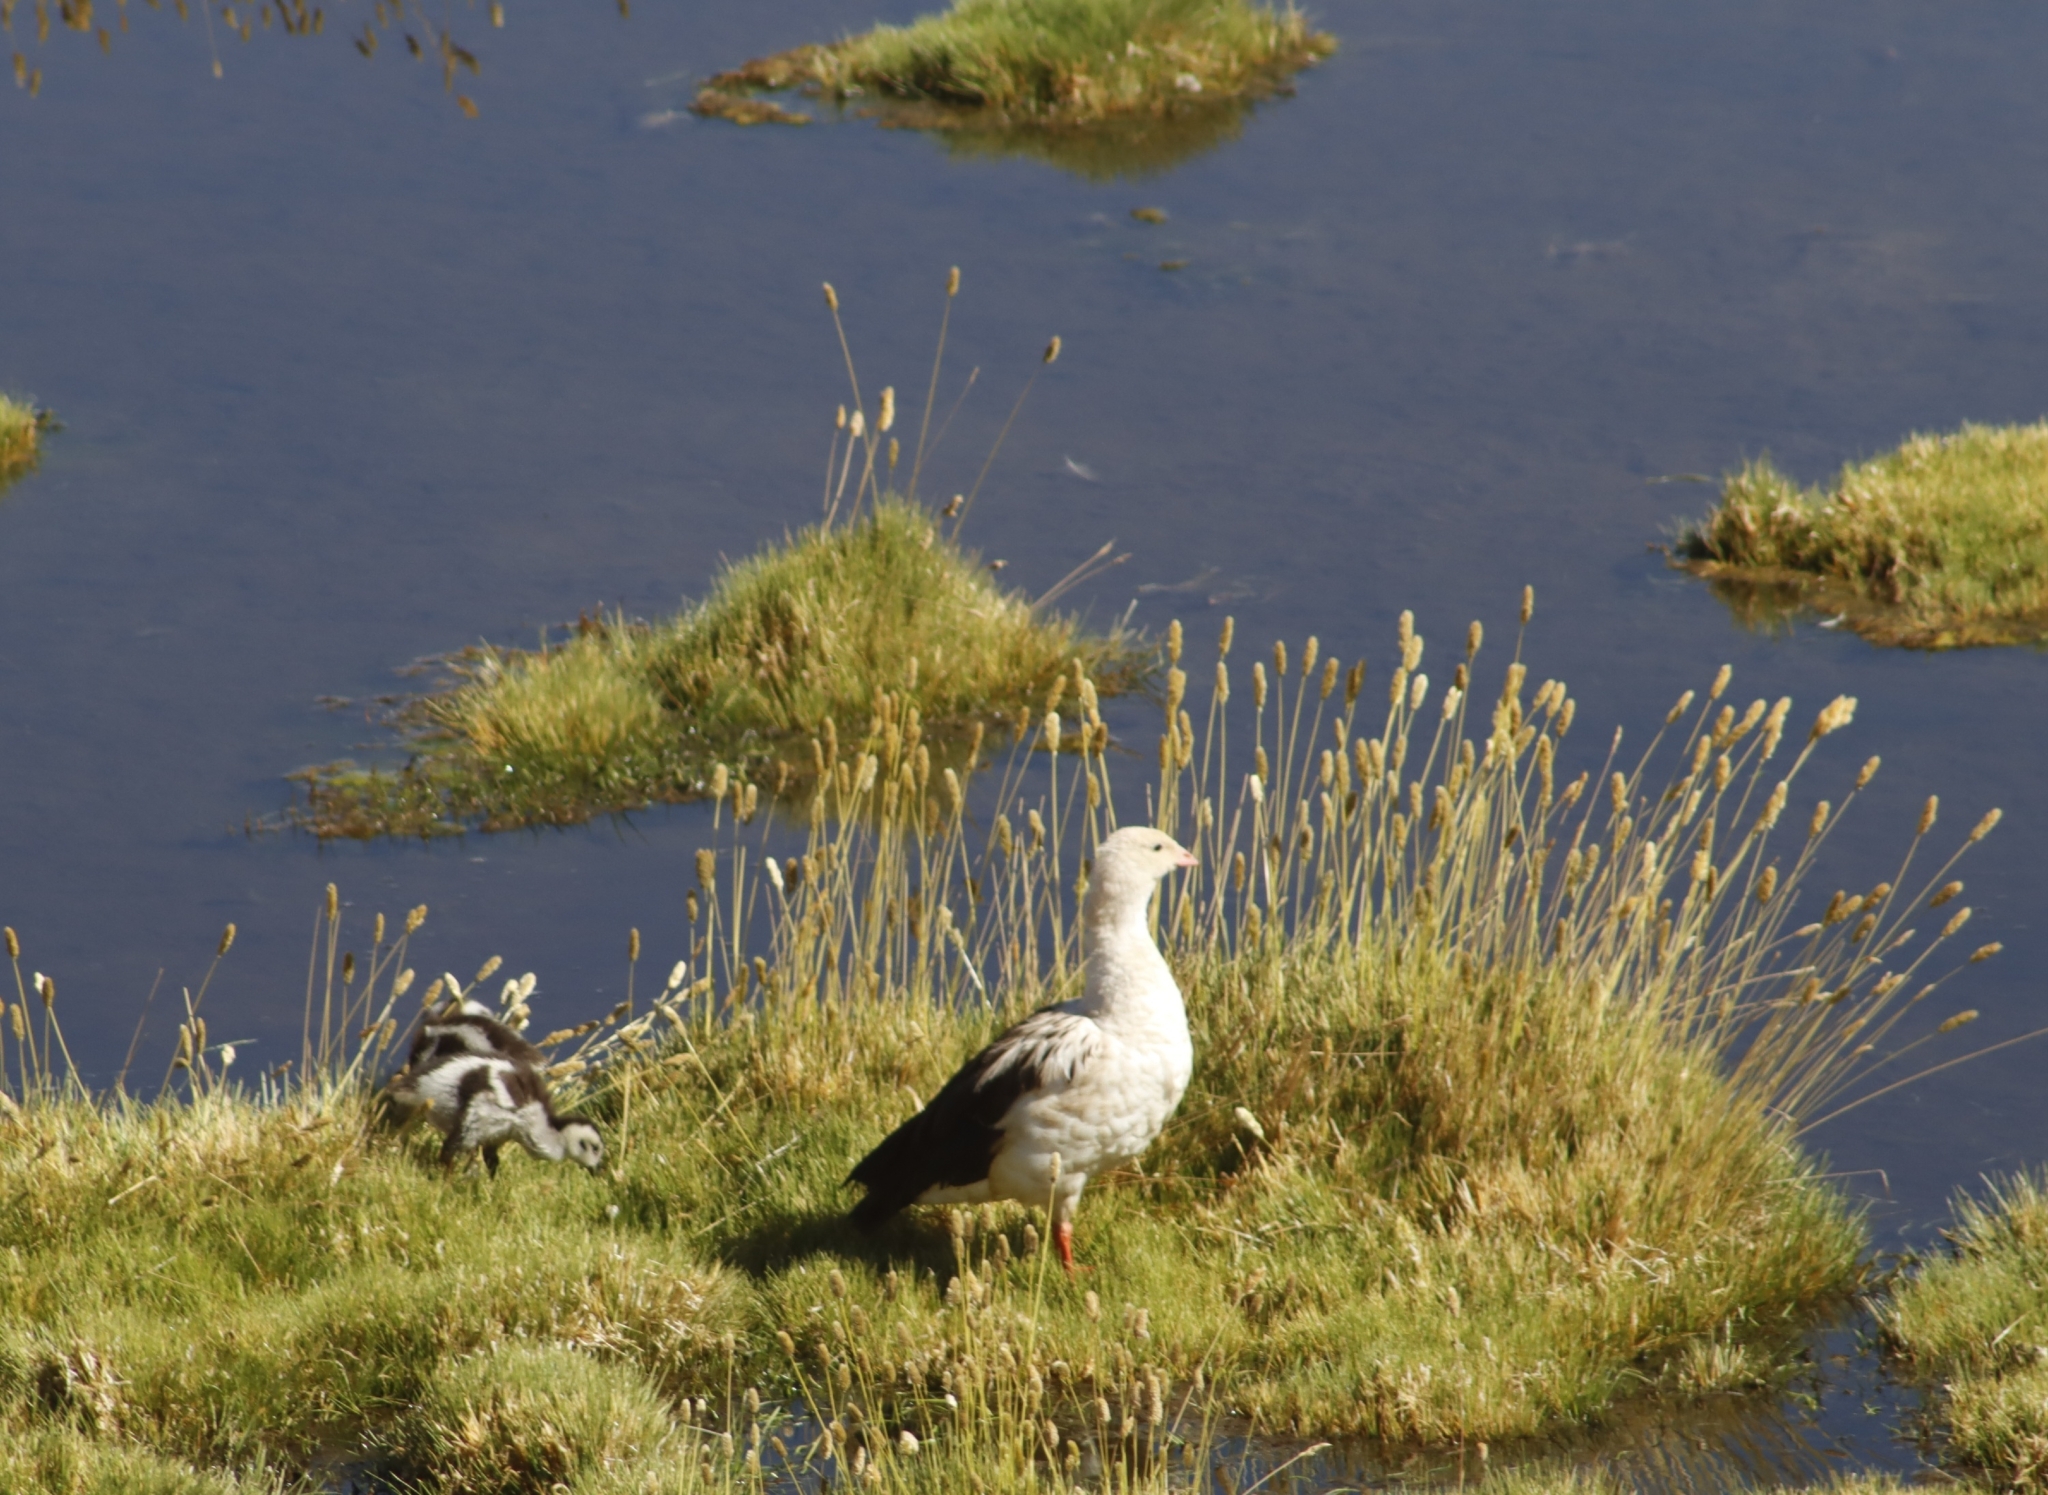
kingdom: Animalia
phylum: Chordata
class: Aves
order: Anseriformes
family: Anatidae
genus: Chloephaga
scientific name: Chloephaga melanoptera
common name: Andean goose
